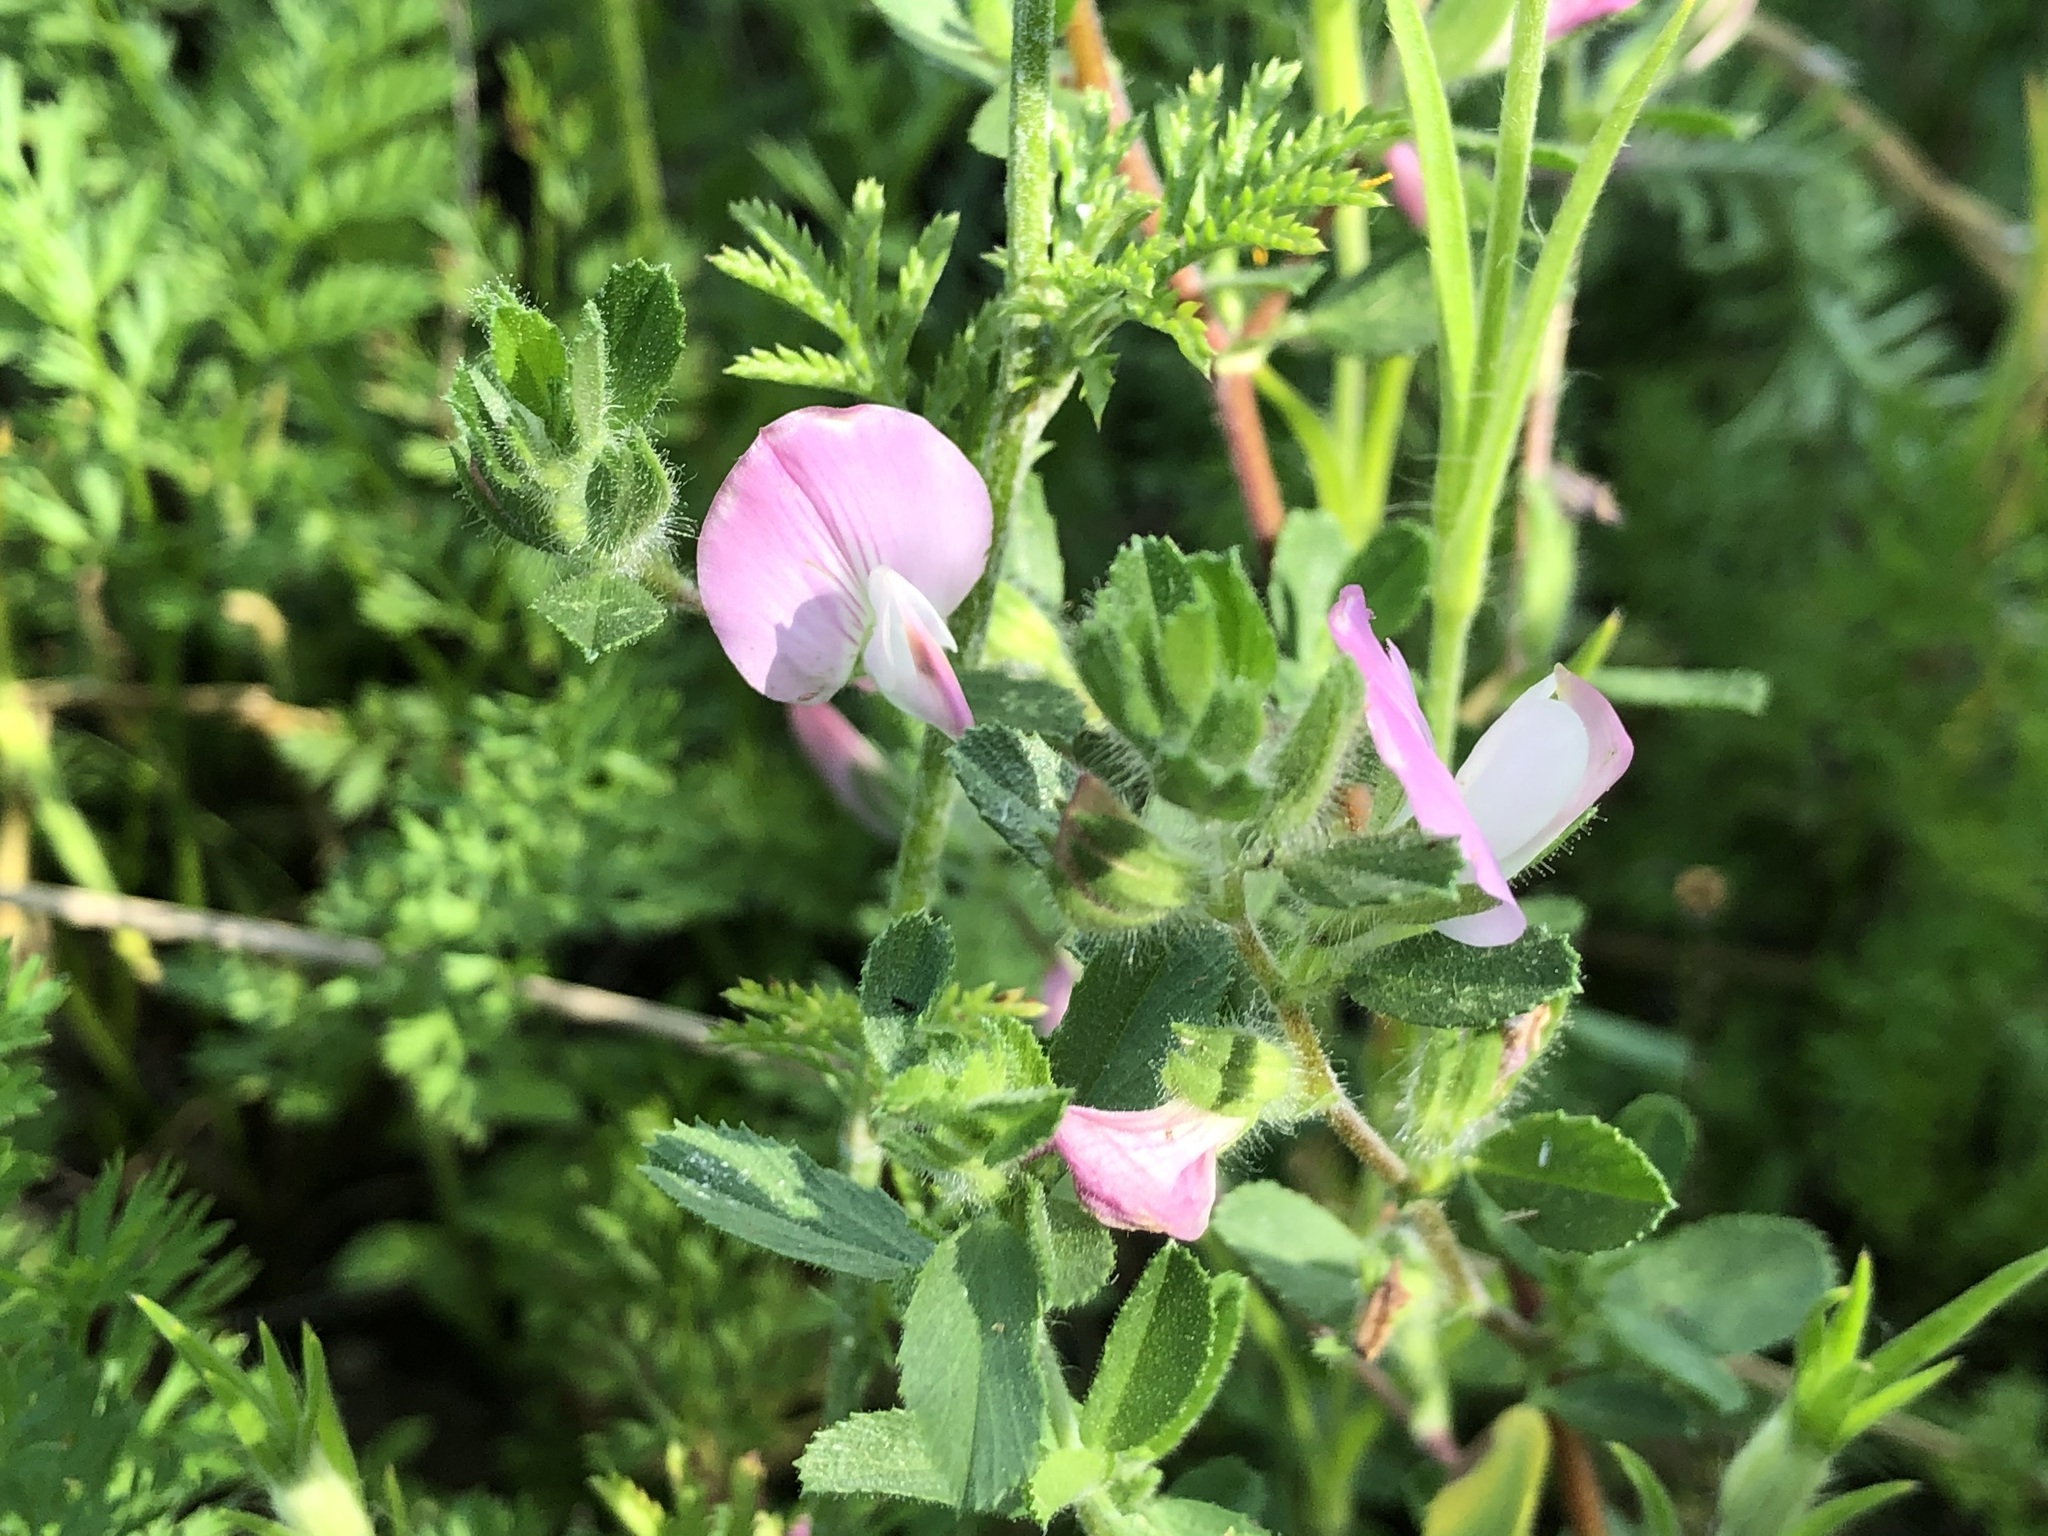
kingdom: Plantae
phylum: Tracheophyta
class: Magnoliopsida
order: Fabales
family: Fabaceae
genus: Ononis
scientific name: Ononis spinosa
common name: Spiny restharrow
